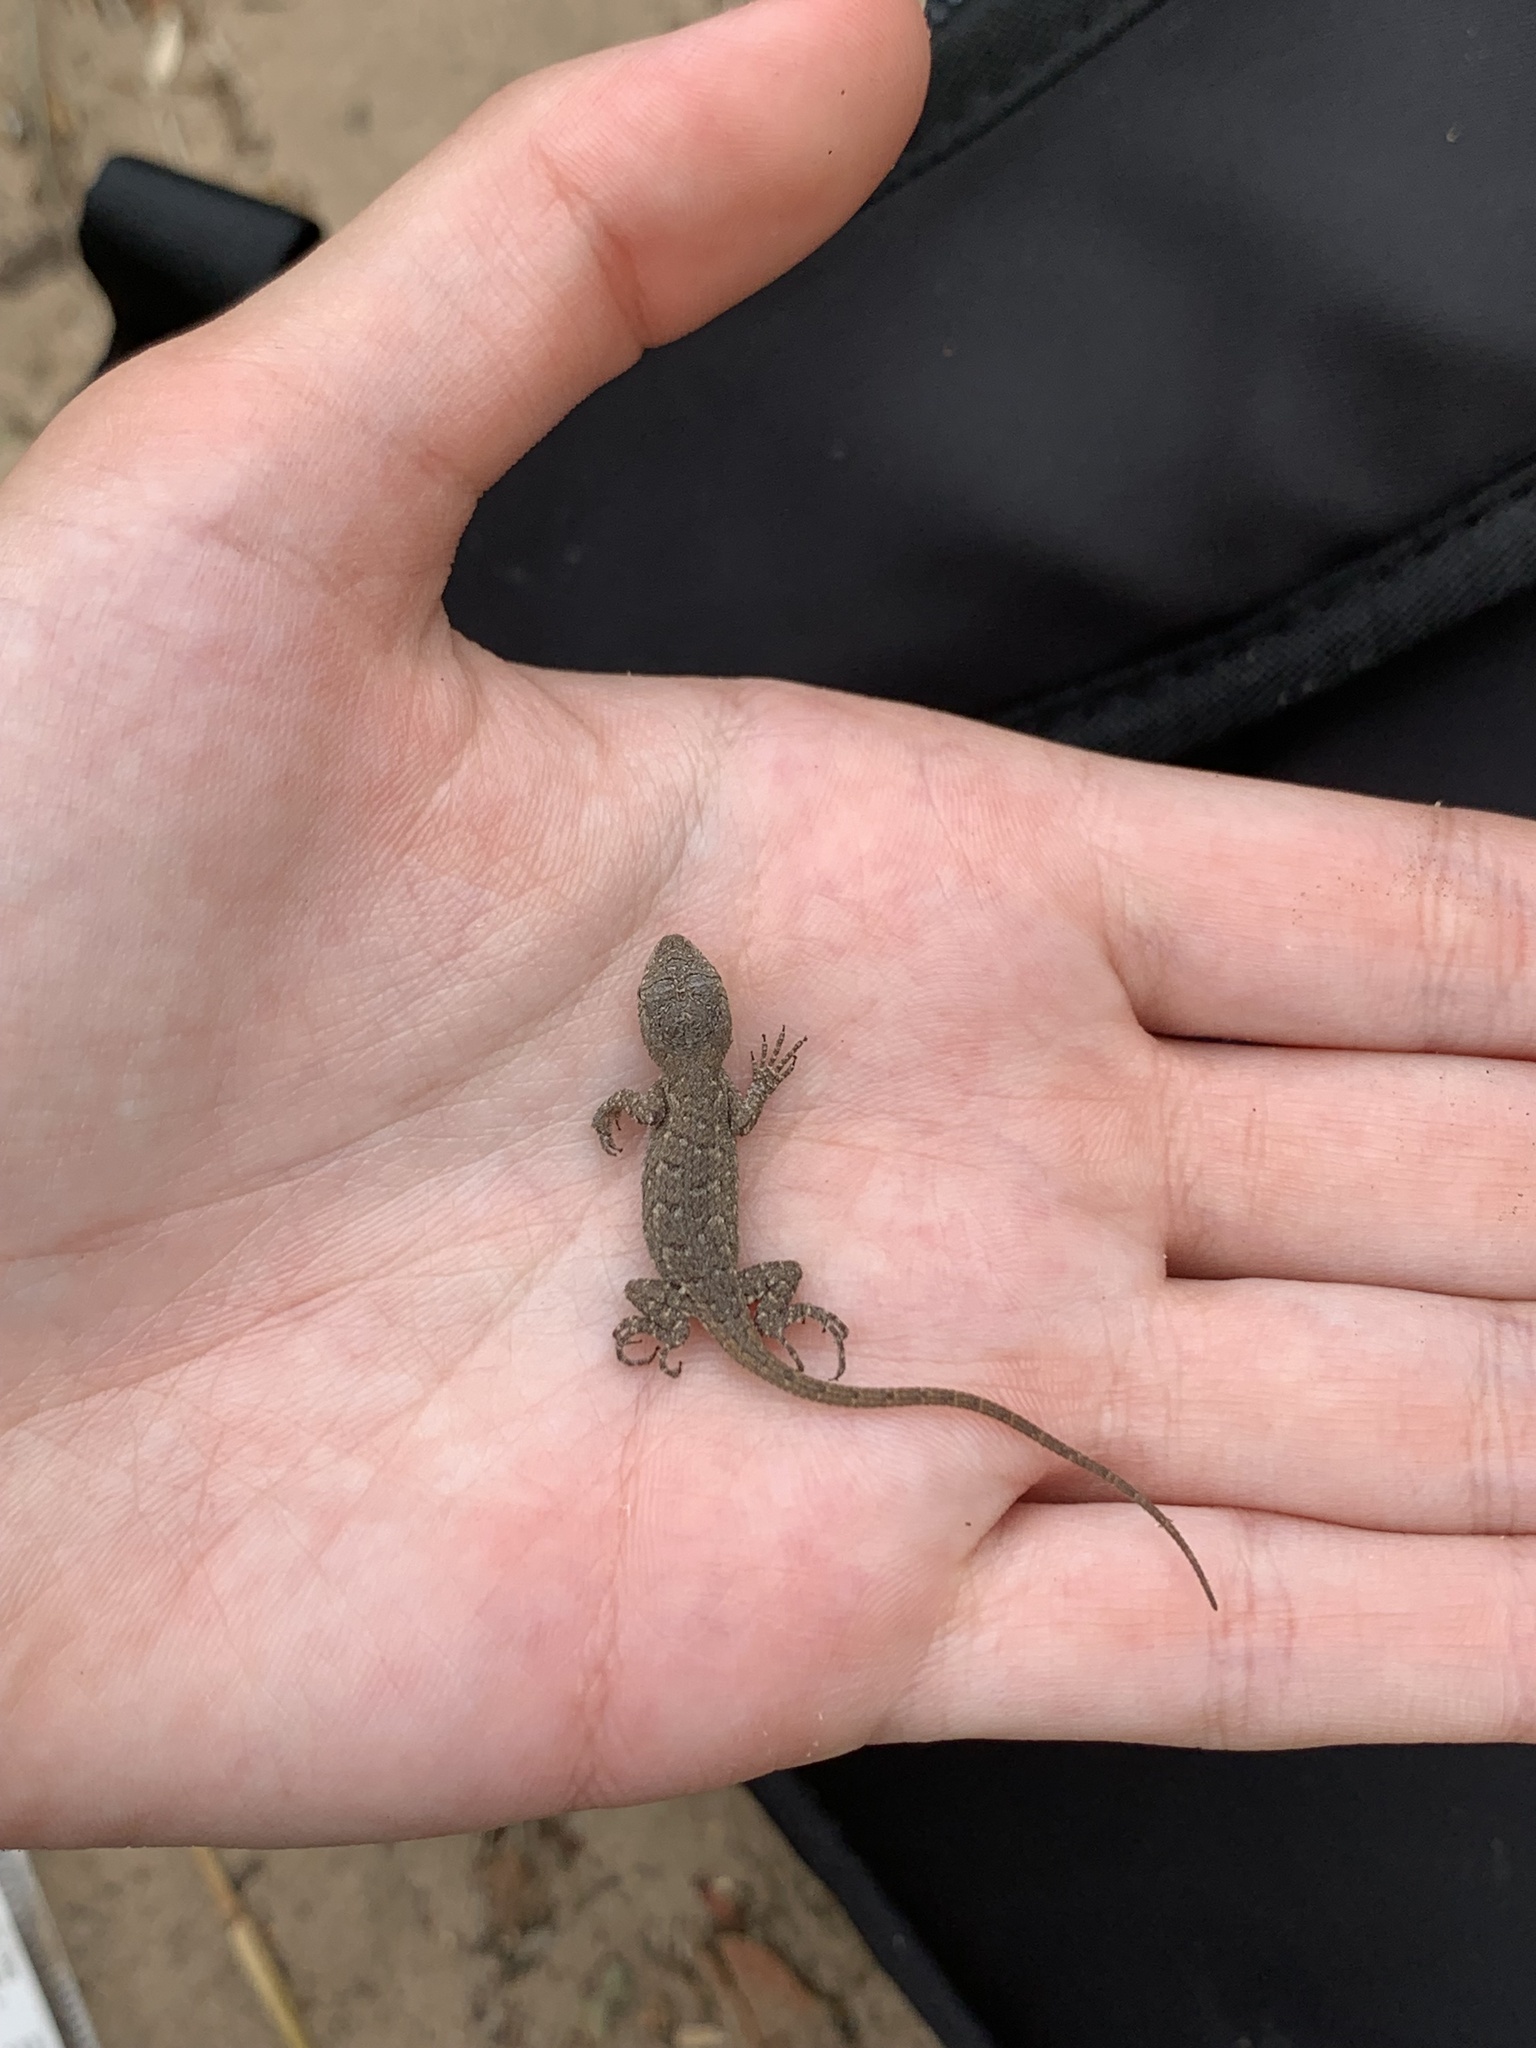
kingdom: Animalia
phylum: Chordata
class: Squamata
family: Phrynosomatidae
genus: Sceloporus
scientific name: Sceloporus consobrinus
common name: Southern prairie lizard
